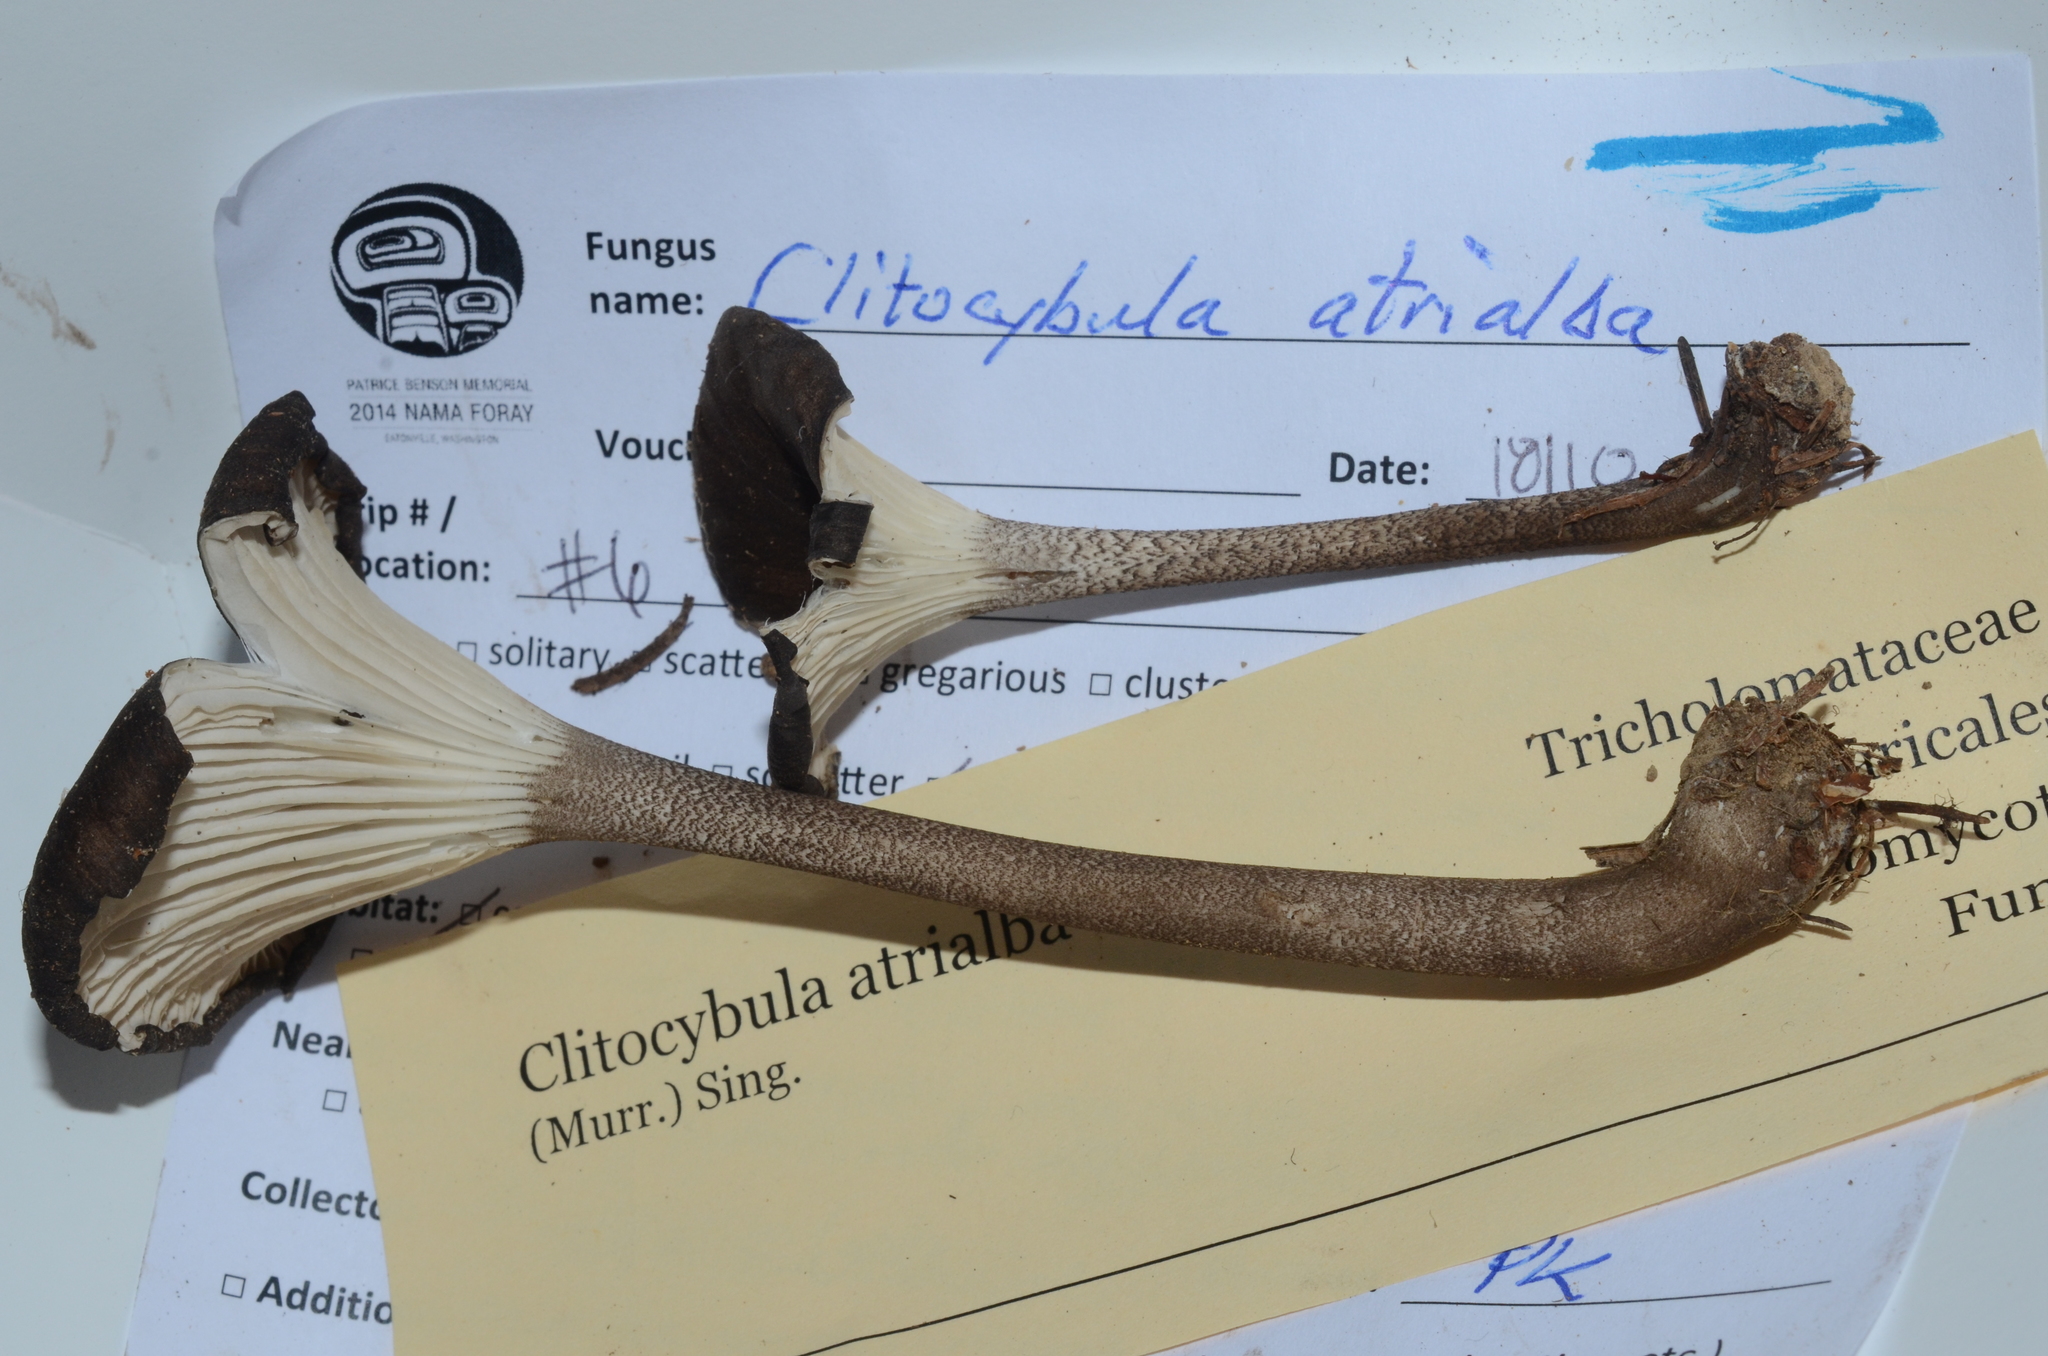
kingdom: Fungi
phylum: Basidiomycota
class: Agaricomycetes
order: Agaricales
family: Marasmiaceae
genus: Gerronema
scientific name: Gerronema atrialbum
